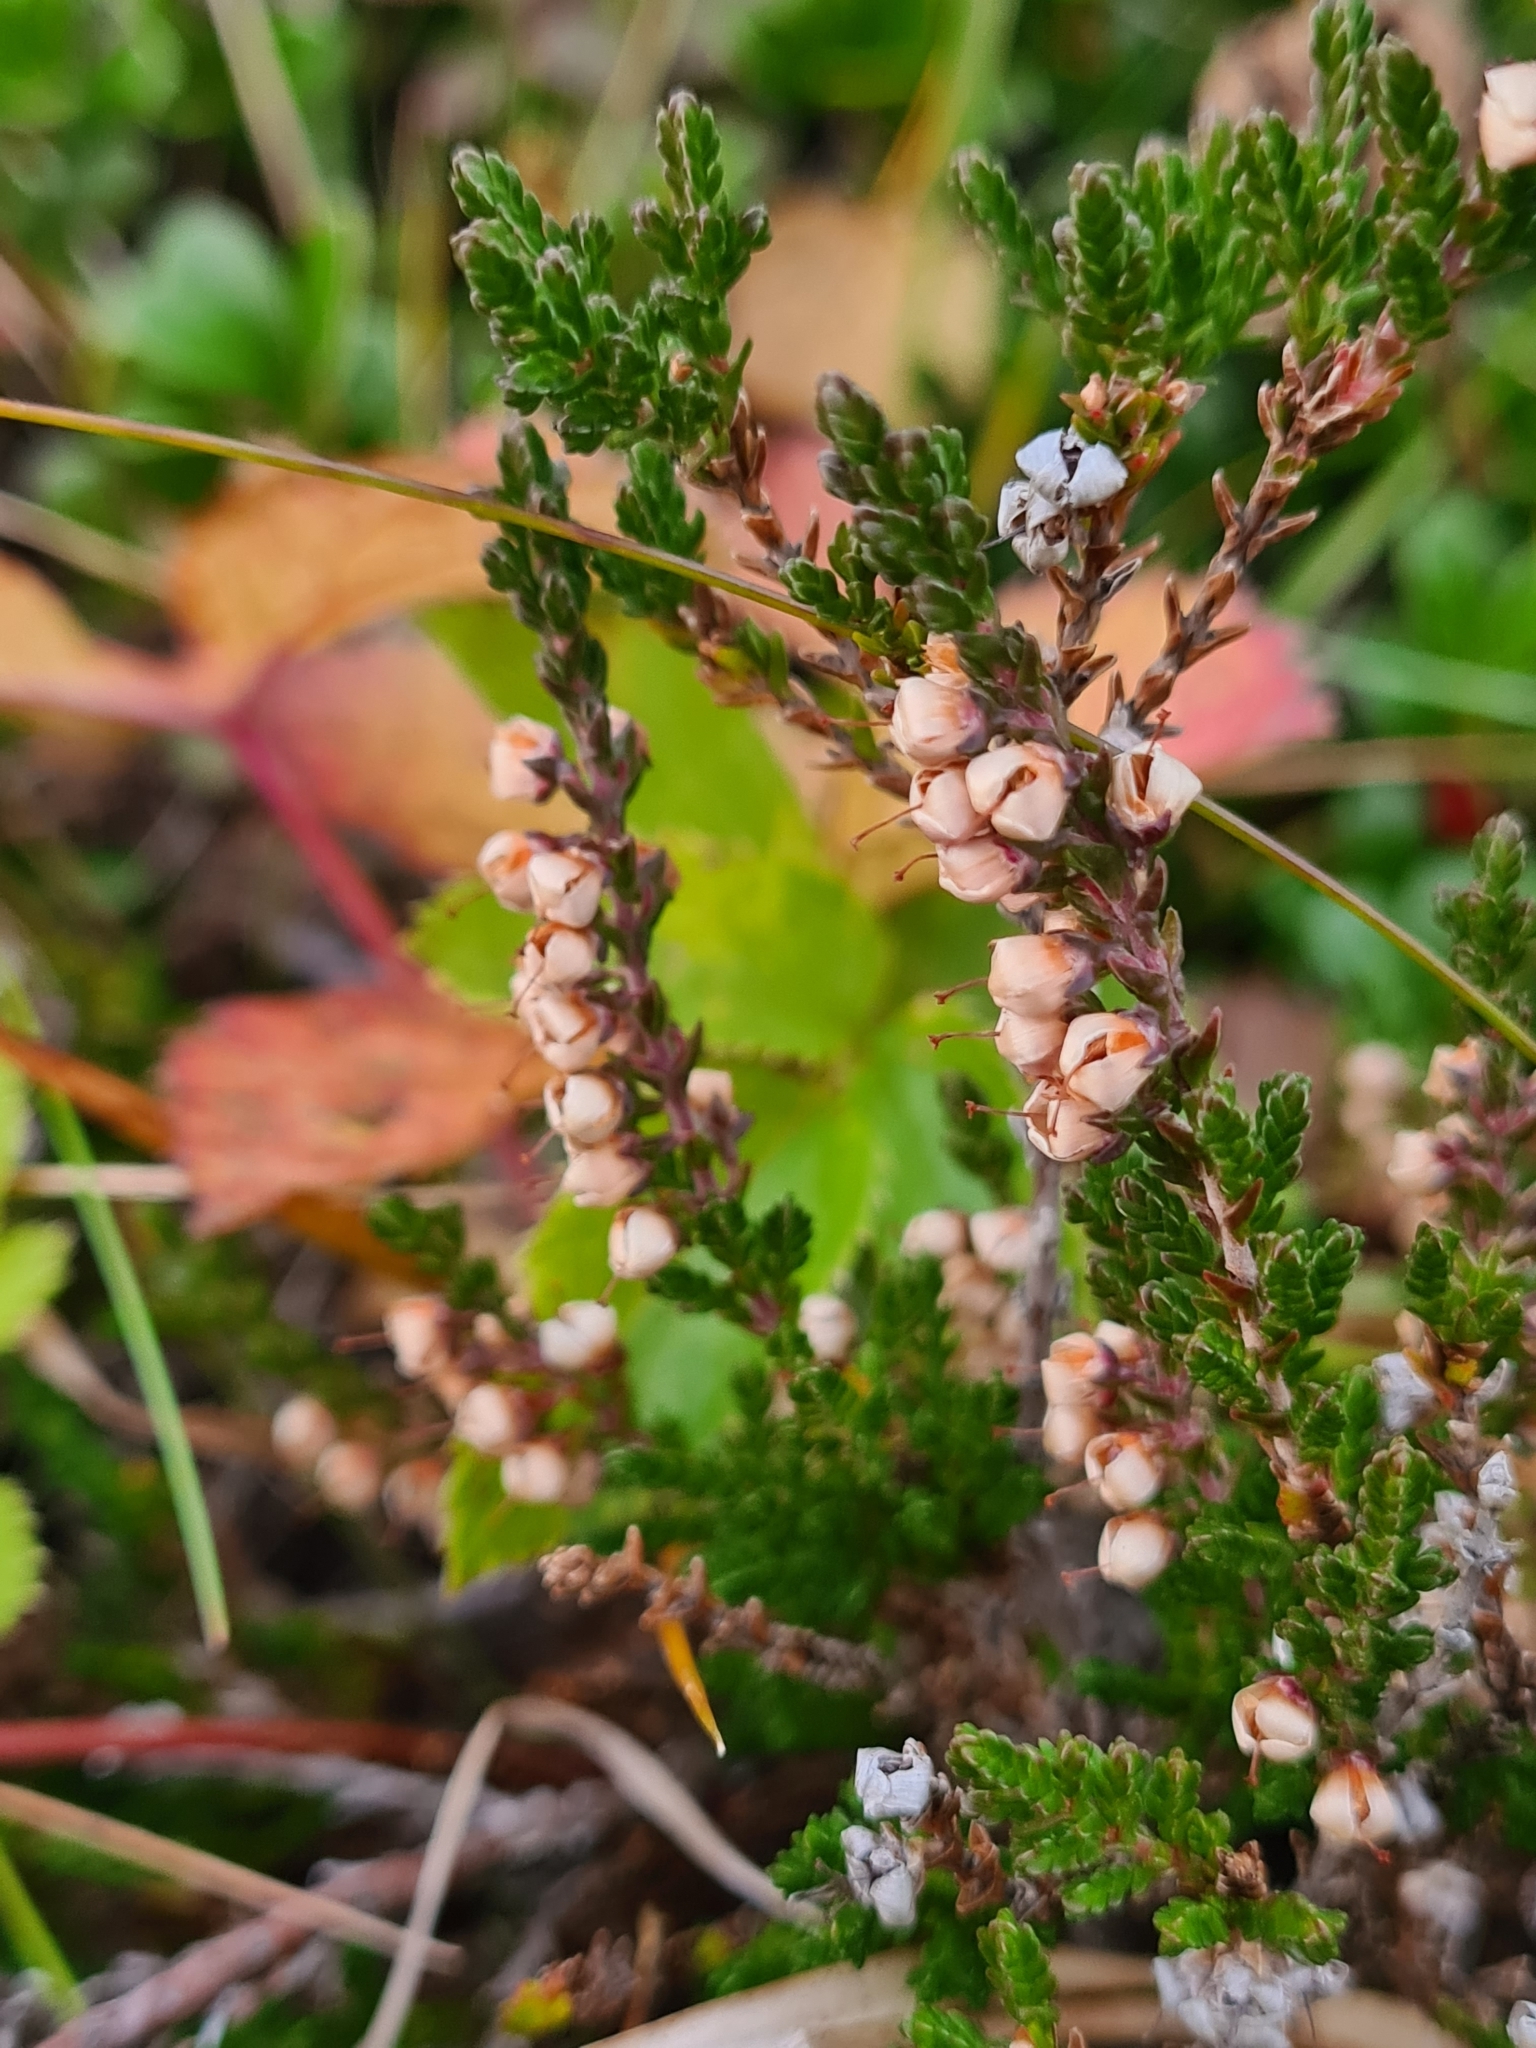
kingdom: Plantae
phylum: Tracheophyta
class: Magnoliopsida
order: Ericales
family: Ericaceae
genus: Calluna
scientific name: Calluna vulgaris
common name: Heather
